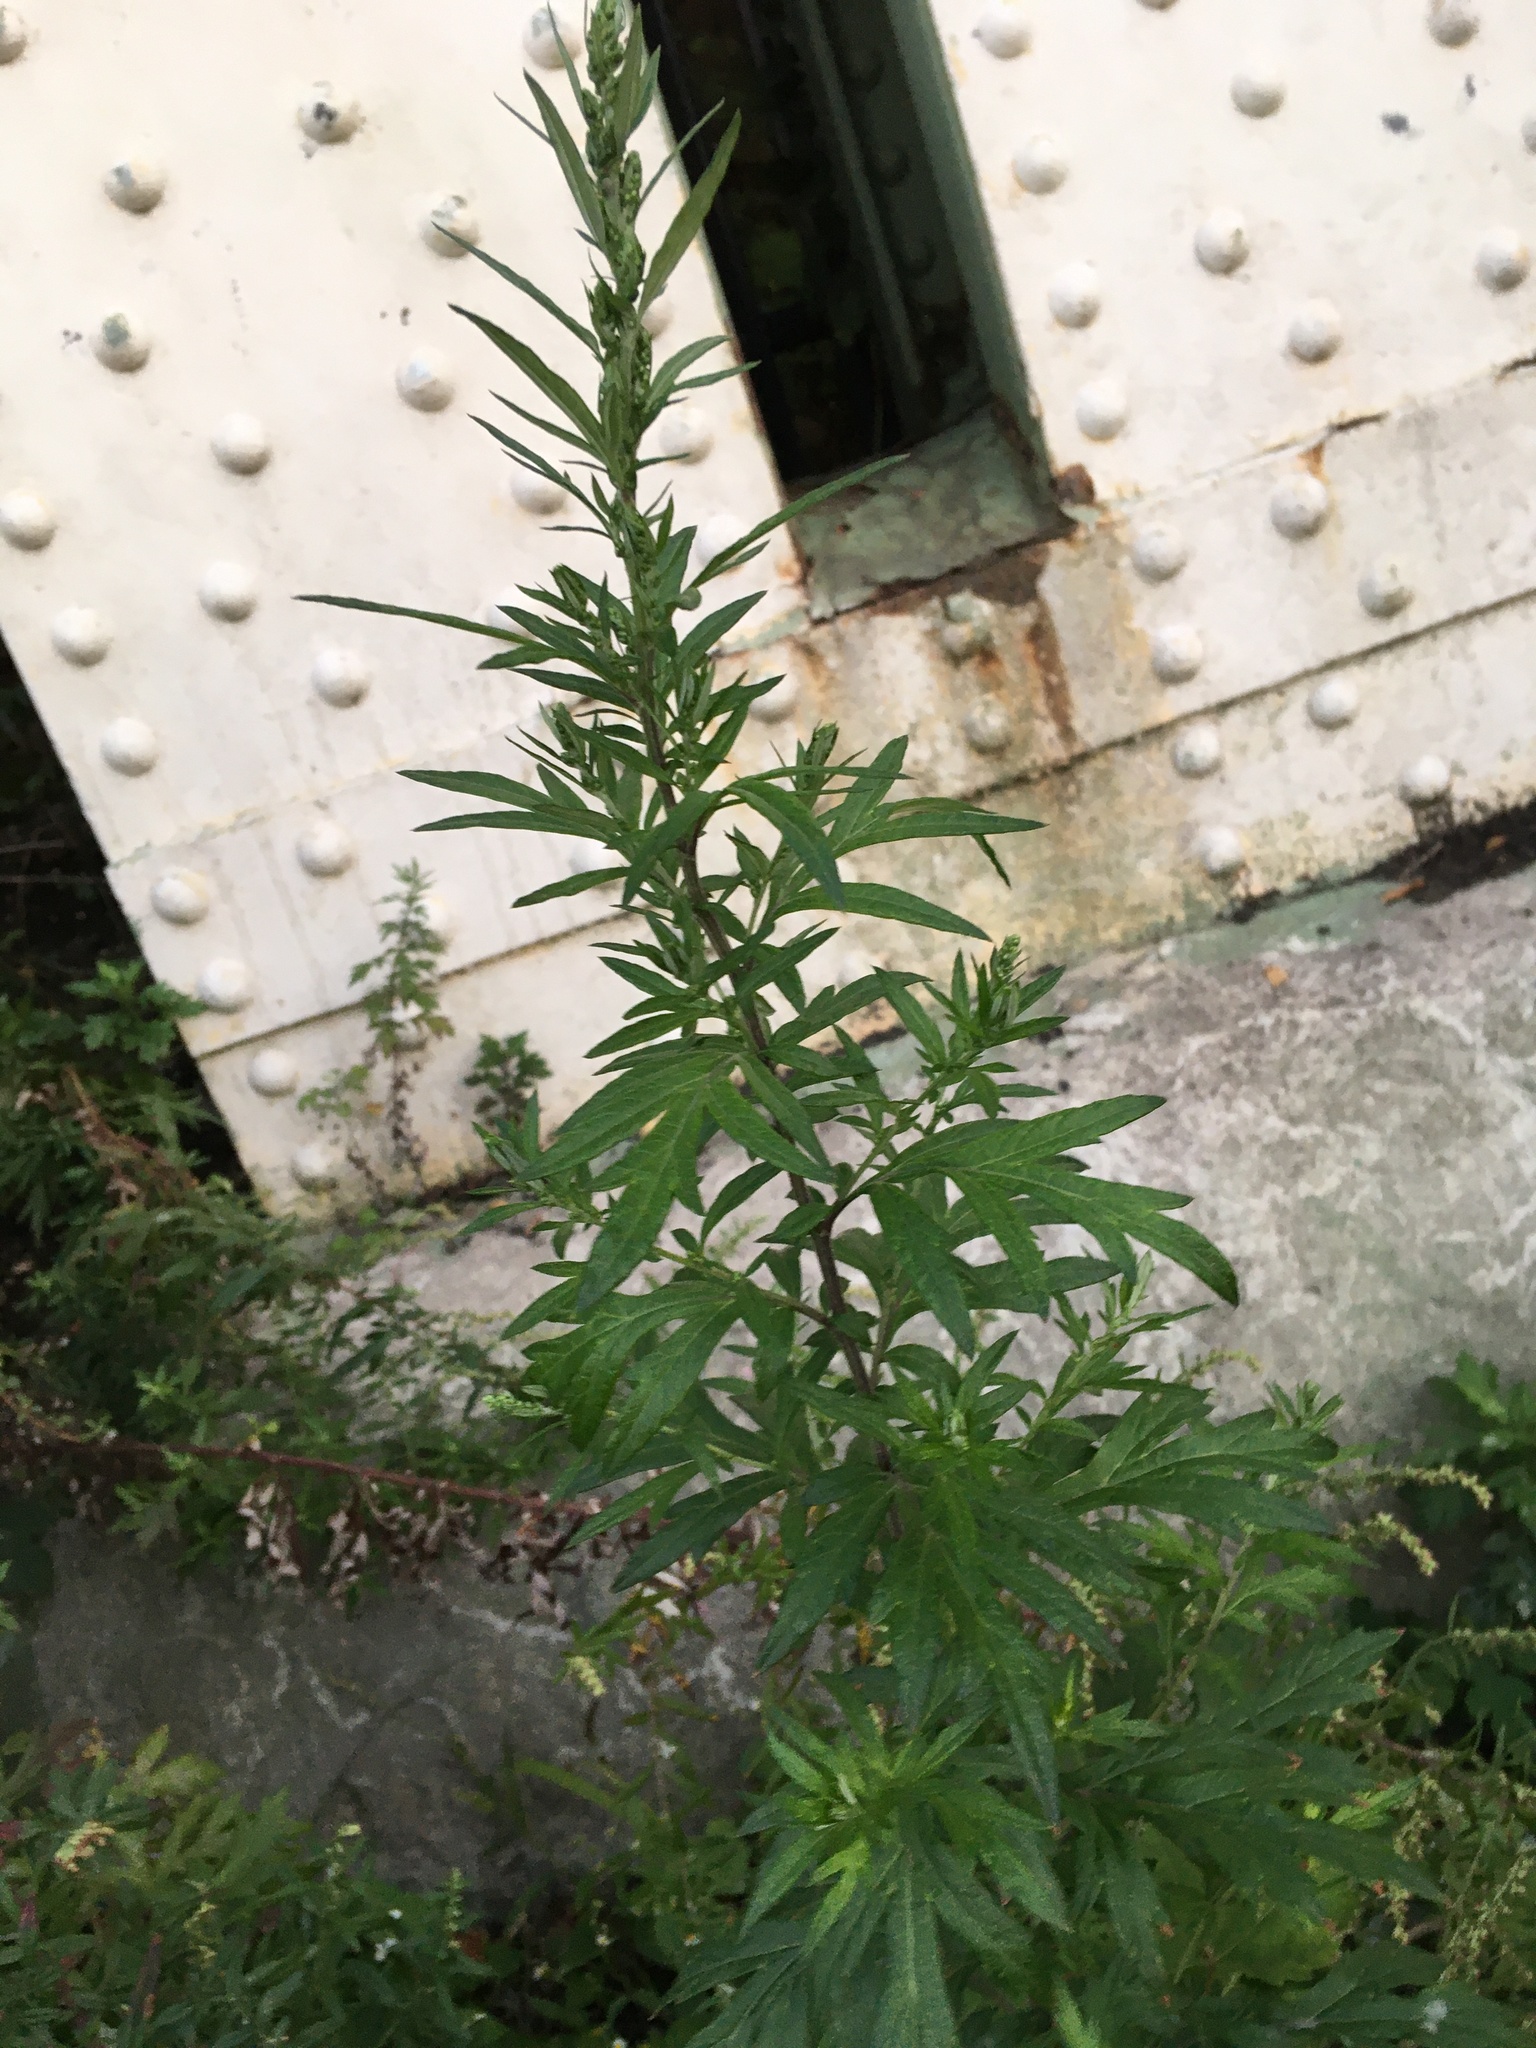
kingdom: Plantae
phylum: Tracheophyta
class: Magnoliopsida
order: Asterales
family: Asteraceae
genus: Artemisia
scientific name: Artemisia vulgaris
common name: Mugwort
